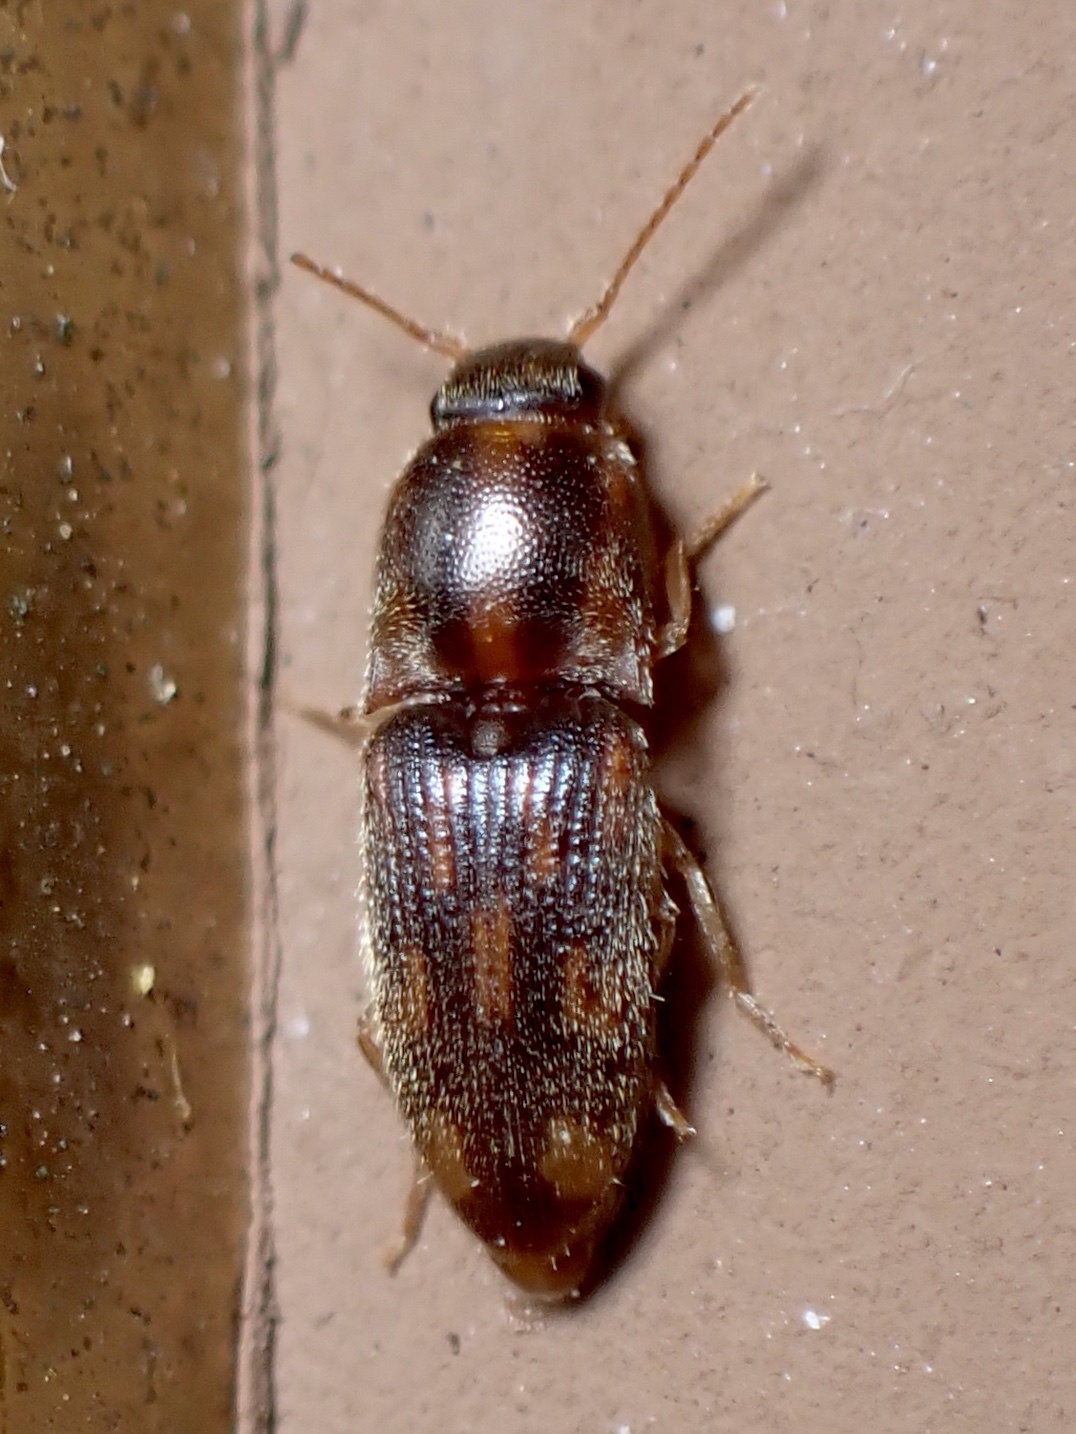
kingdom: Animalia
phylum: Arthropoda
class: Insecta
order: Coleoptera
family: Elateridae
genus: Monocrepidius
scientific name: Monocrepidius bellus
